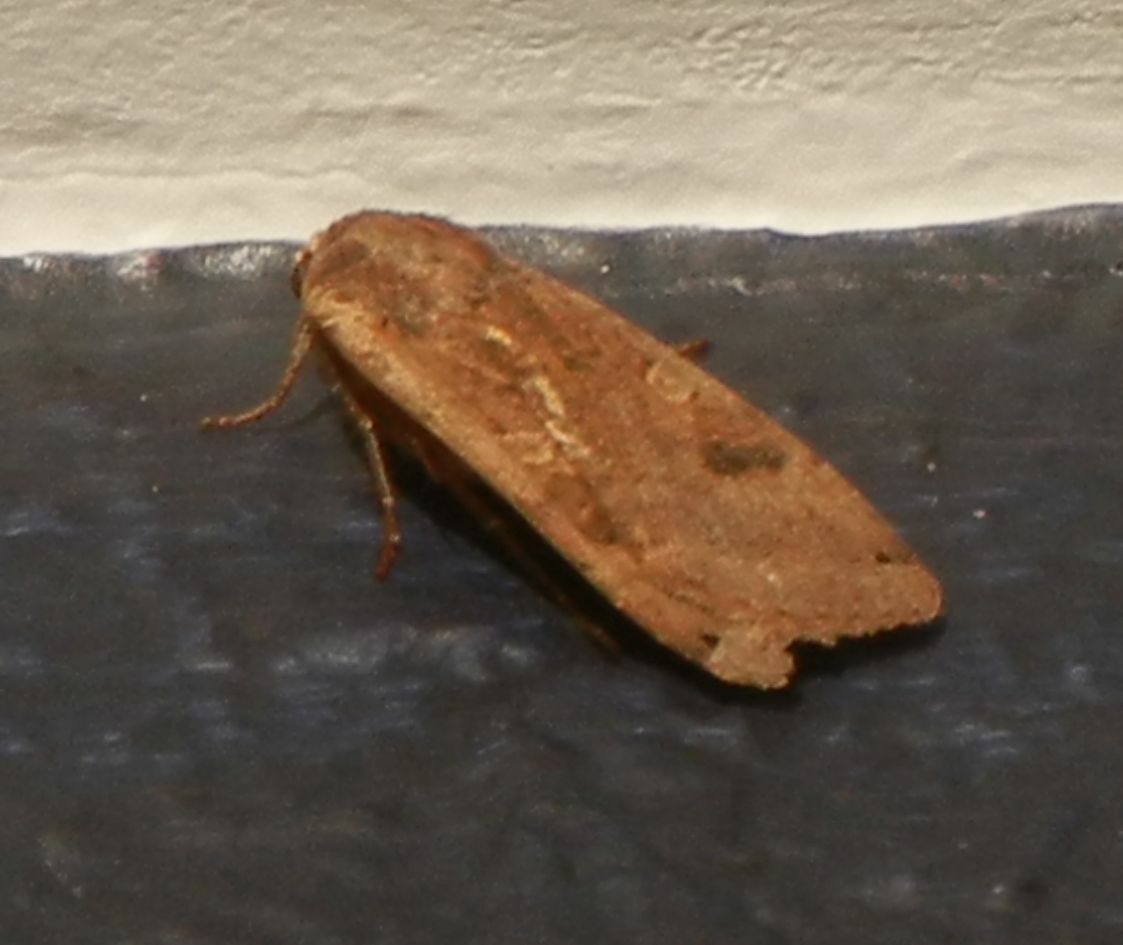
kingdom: Animalia
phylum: Arthropoda
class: Insecta
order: Lepidoptera
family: Noctuidae
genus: Noctua
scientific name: Noctua pronuba
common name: Large yellow underwing
